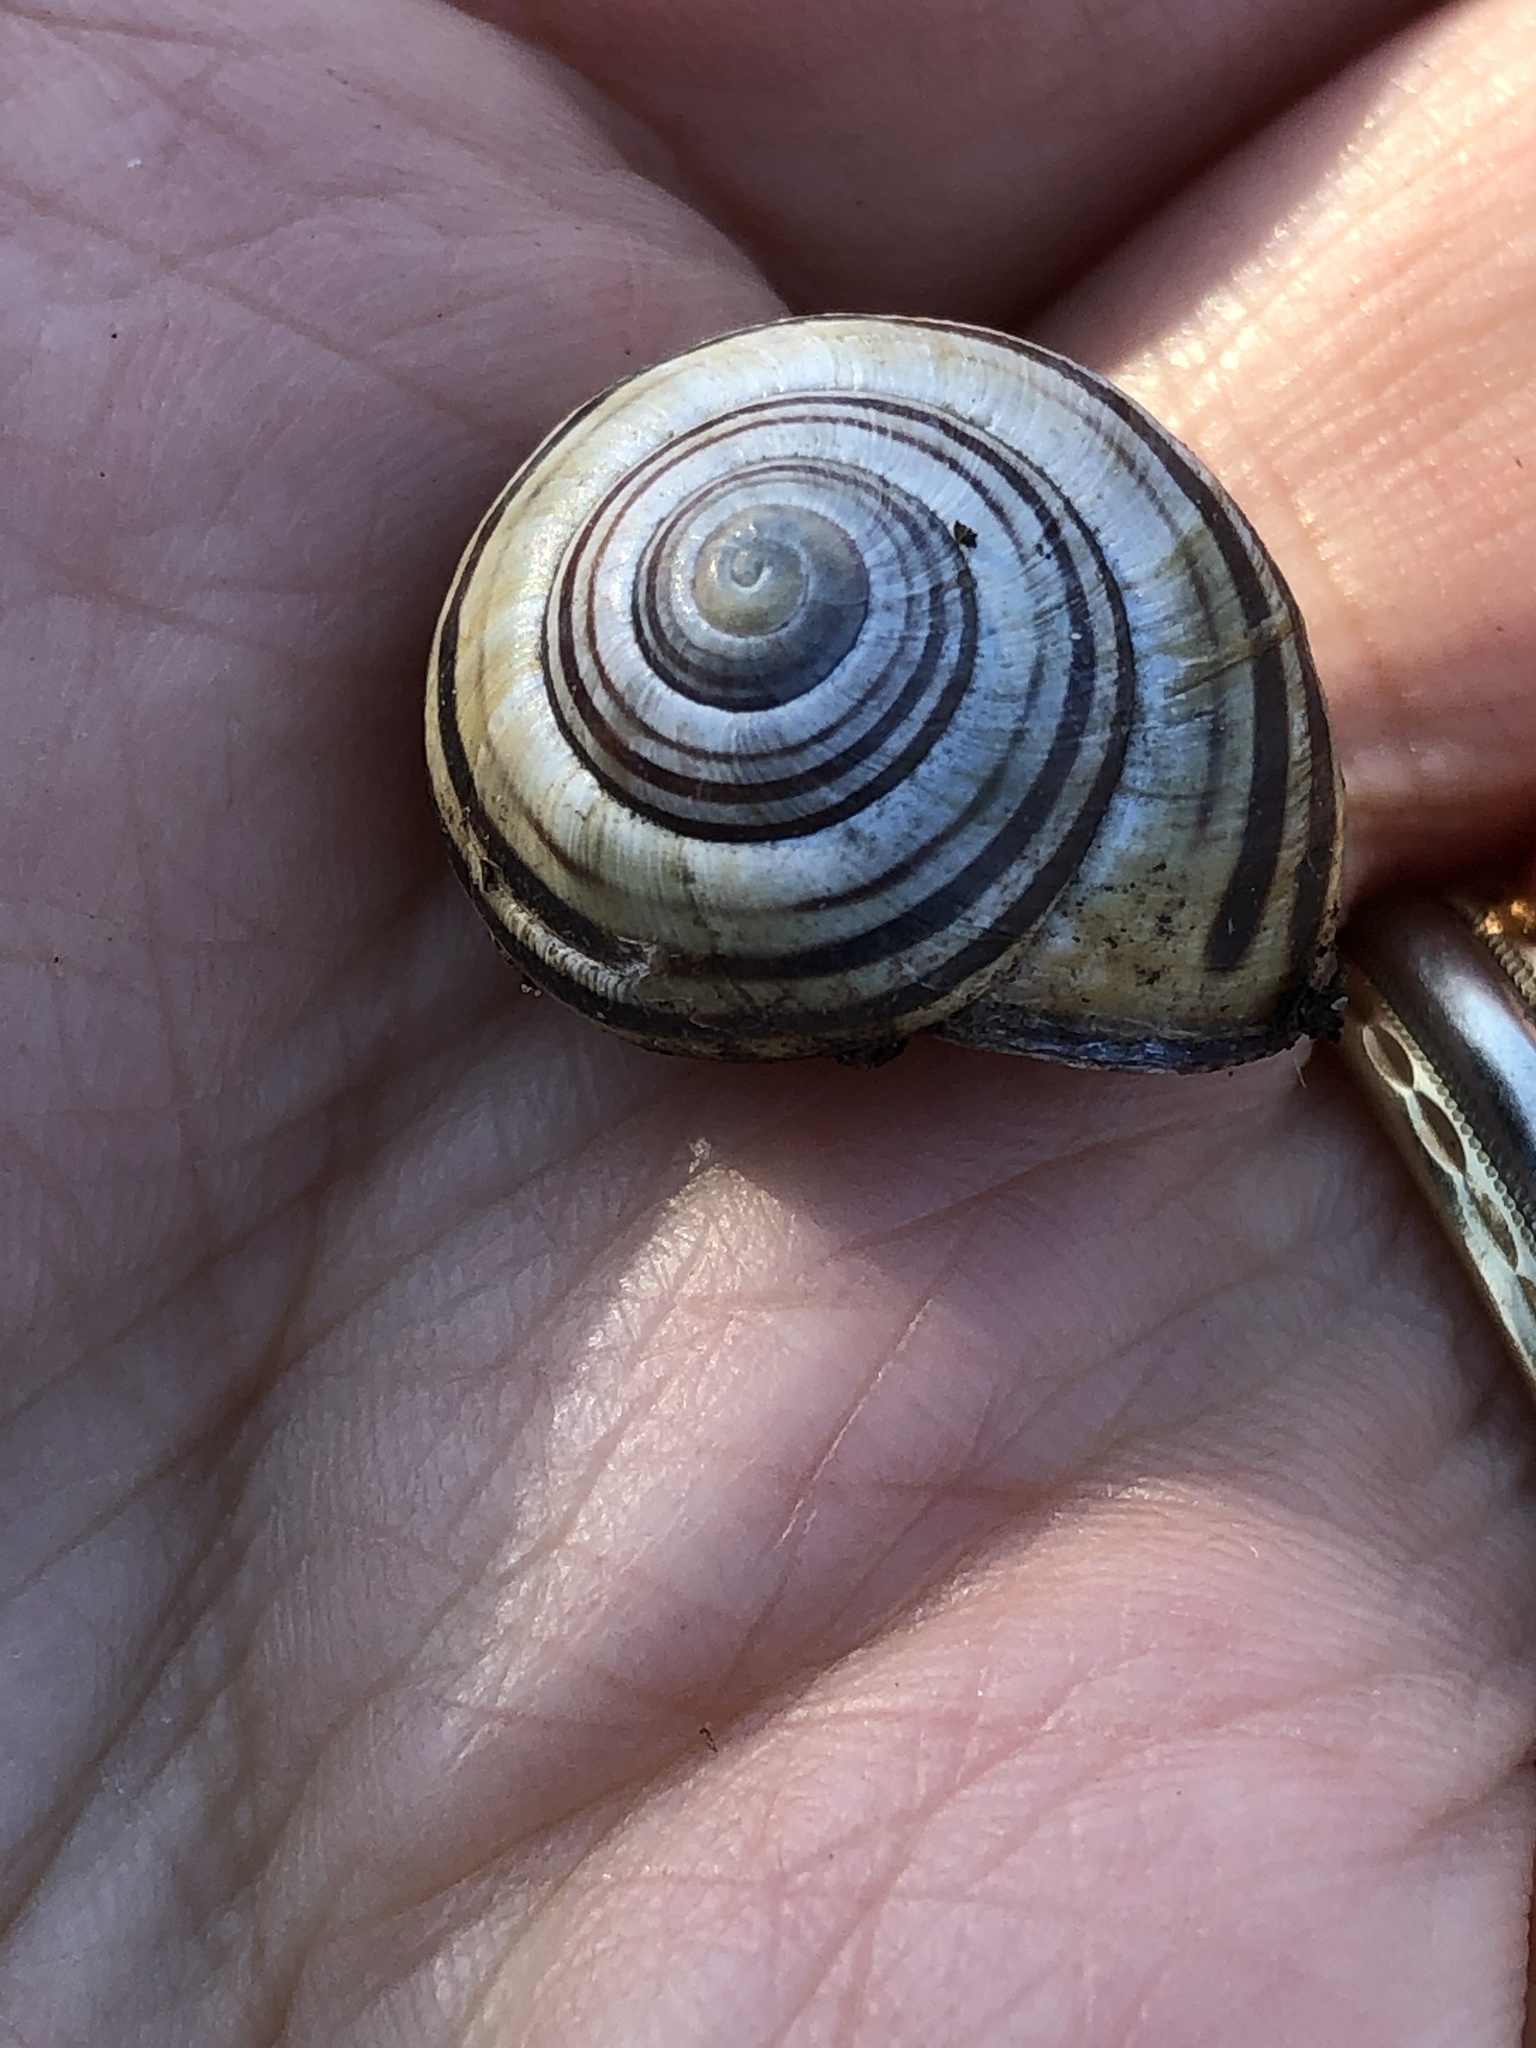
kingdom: Animalia
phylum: Mollusca
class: Gastropoda
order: Stylommatophora
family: Helicidae
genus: Cepaea
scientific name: Cepaea nemoralis
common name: Grovesnail
